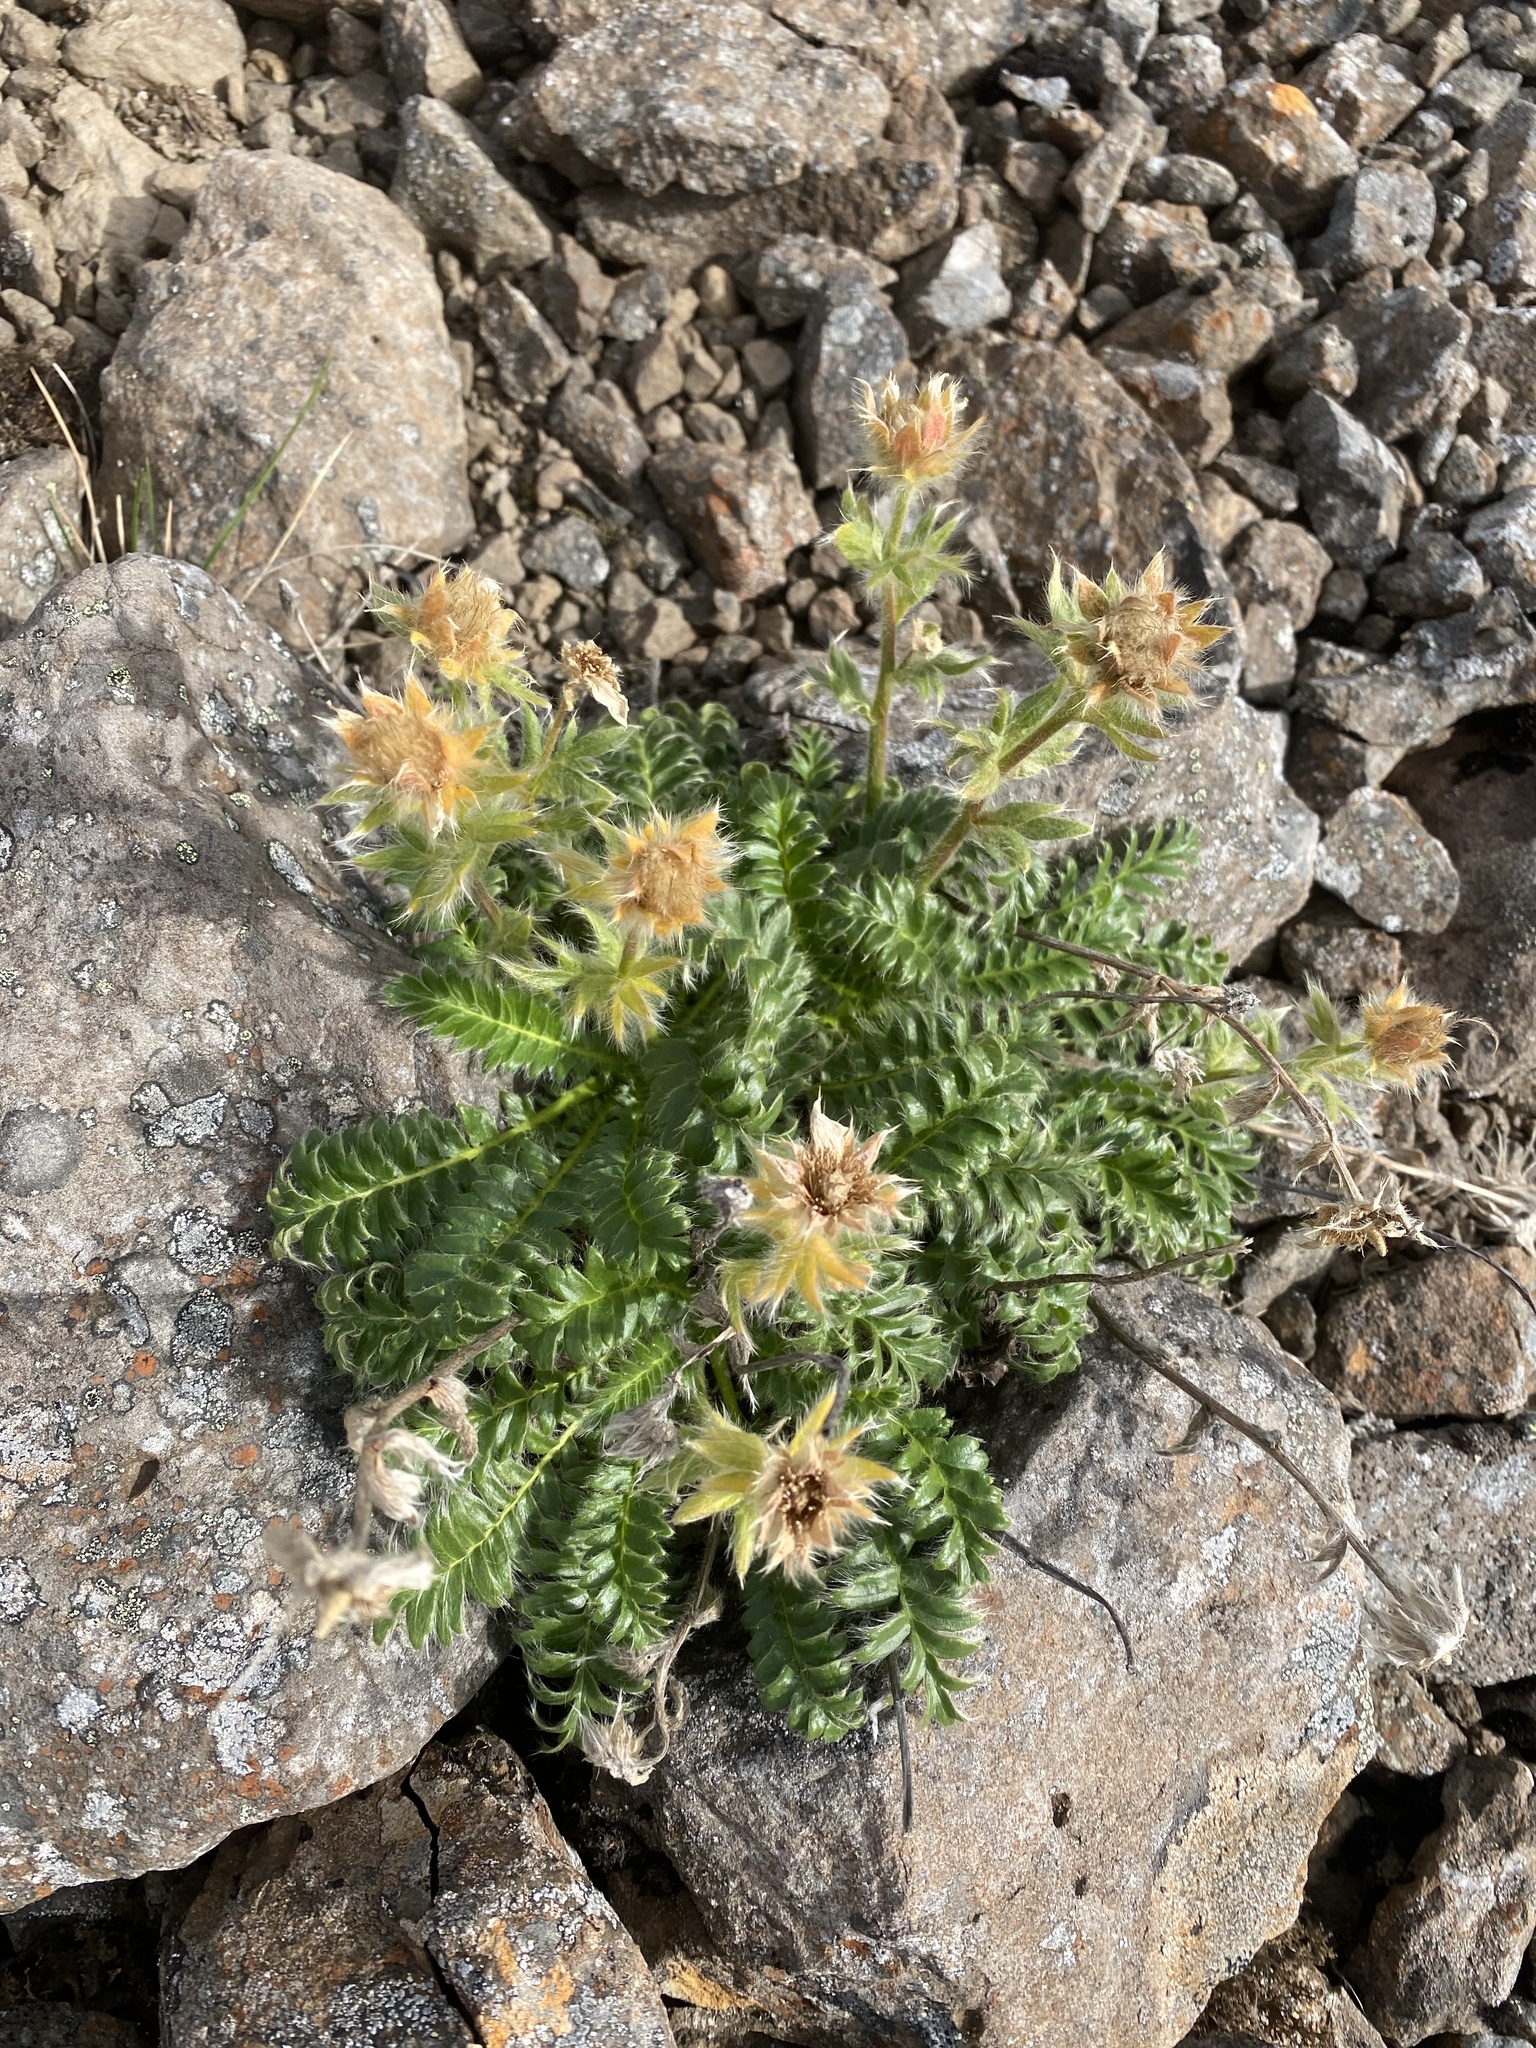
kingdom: Plantae
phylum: Tracheophyta
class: Magnoliopsida
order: Rosales
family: Rosaceae
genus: Geum
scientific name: Geum glaciale
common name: Glacier avens
